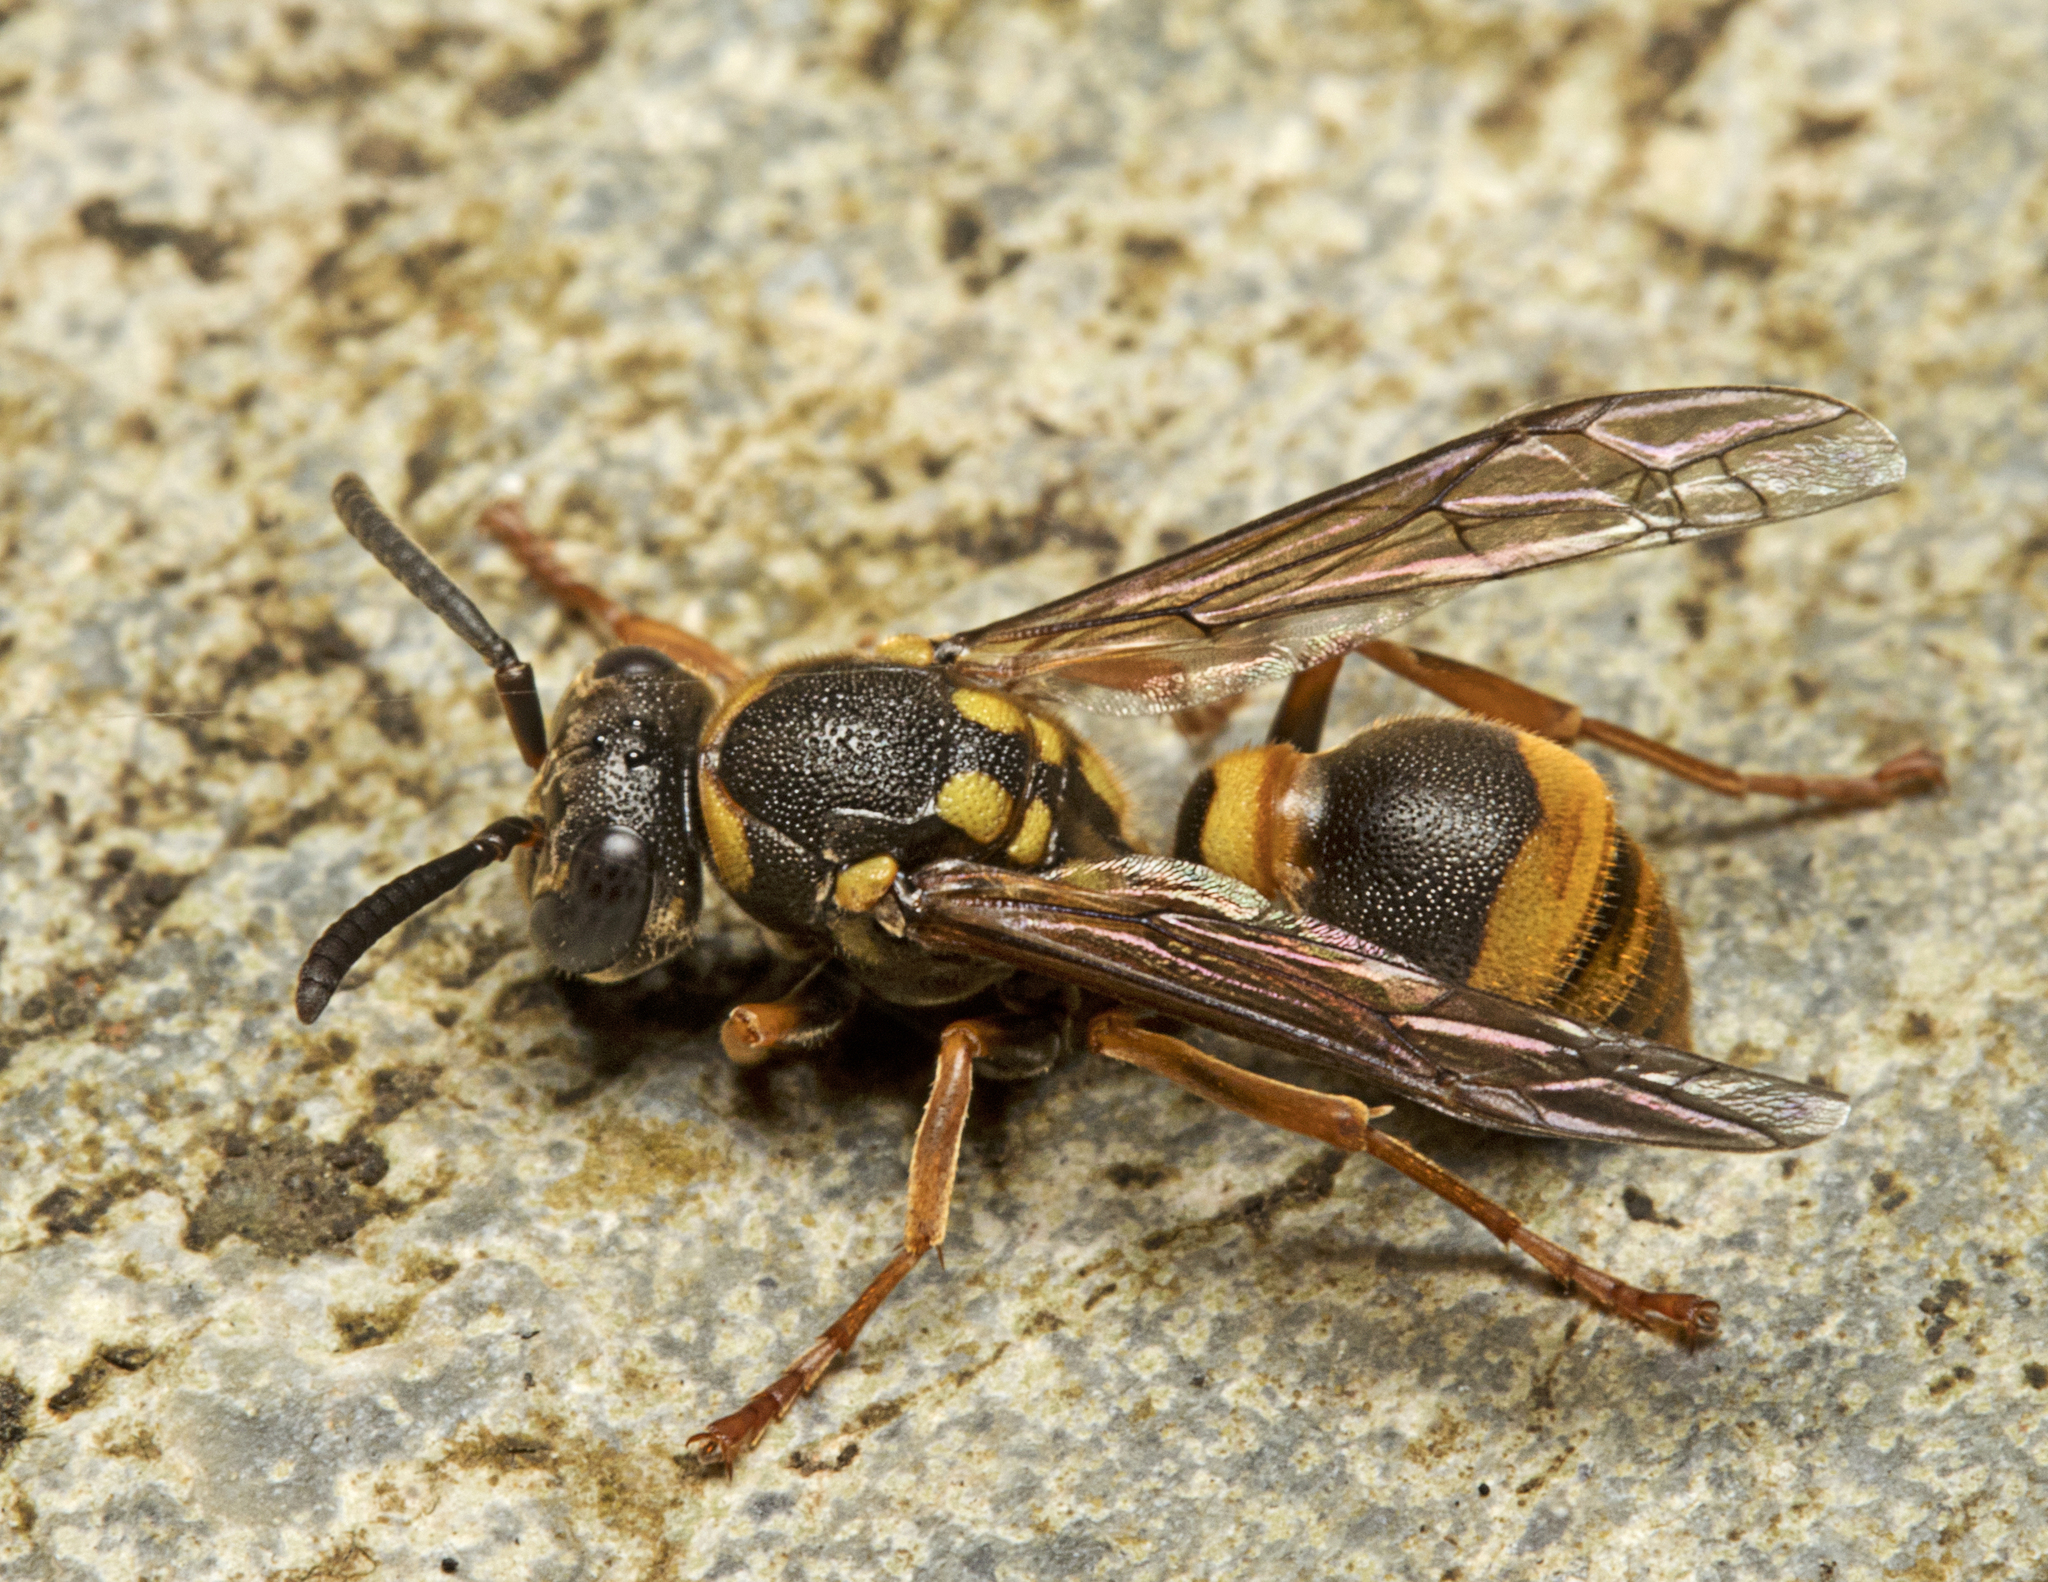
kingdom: Animalia
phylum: Arthropoda
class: Insecta
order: Hymenoptera
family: Vespidae
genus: Ropalidia
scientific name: Ropalidia socialistica
